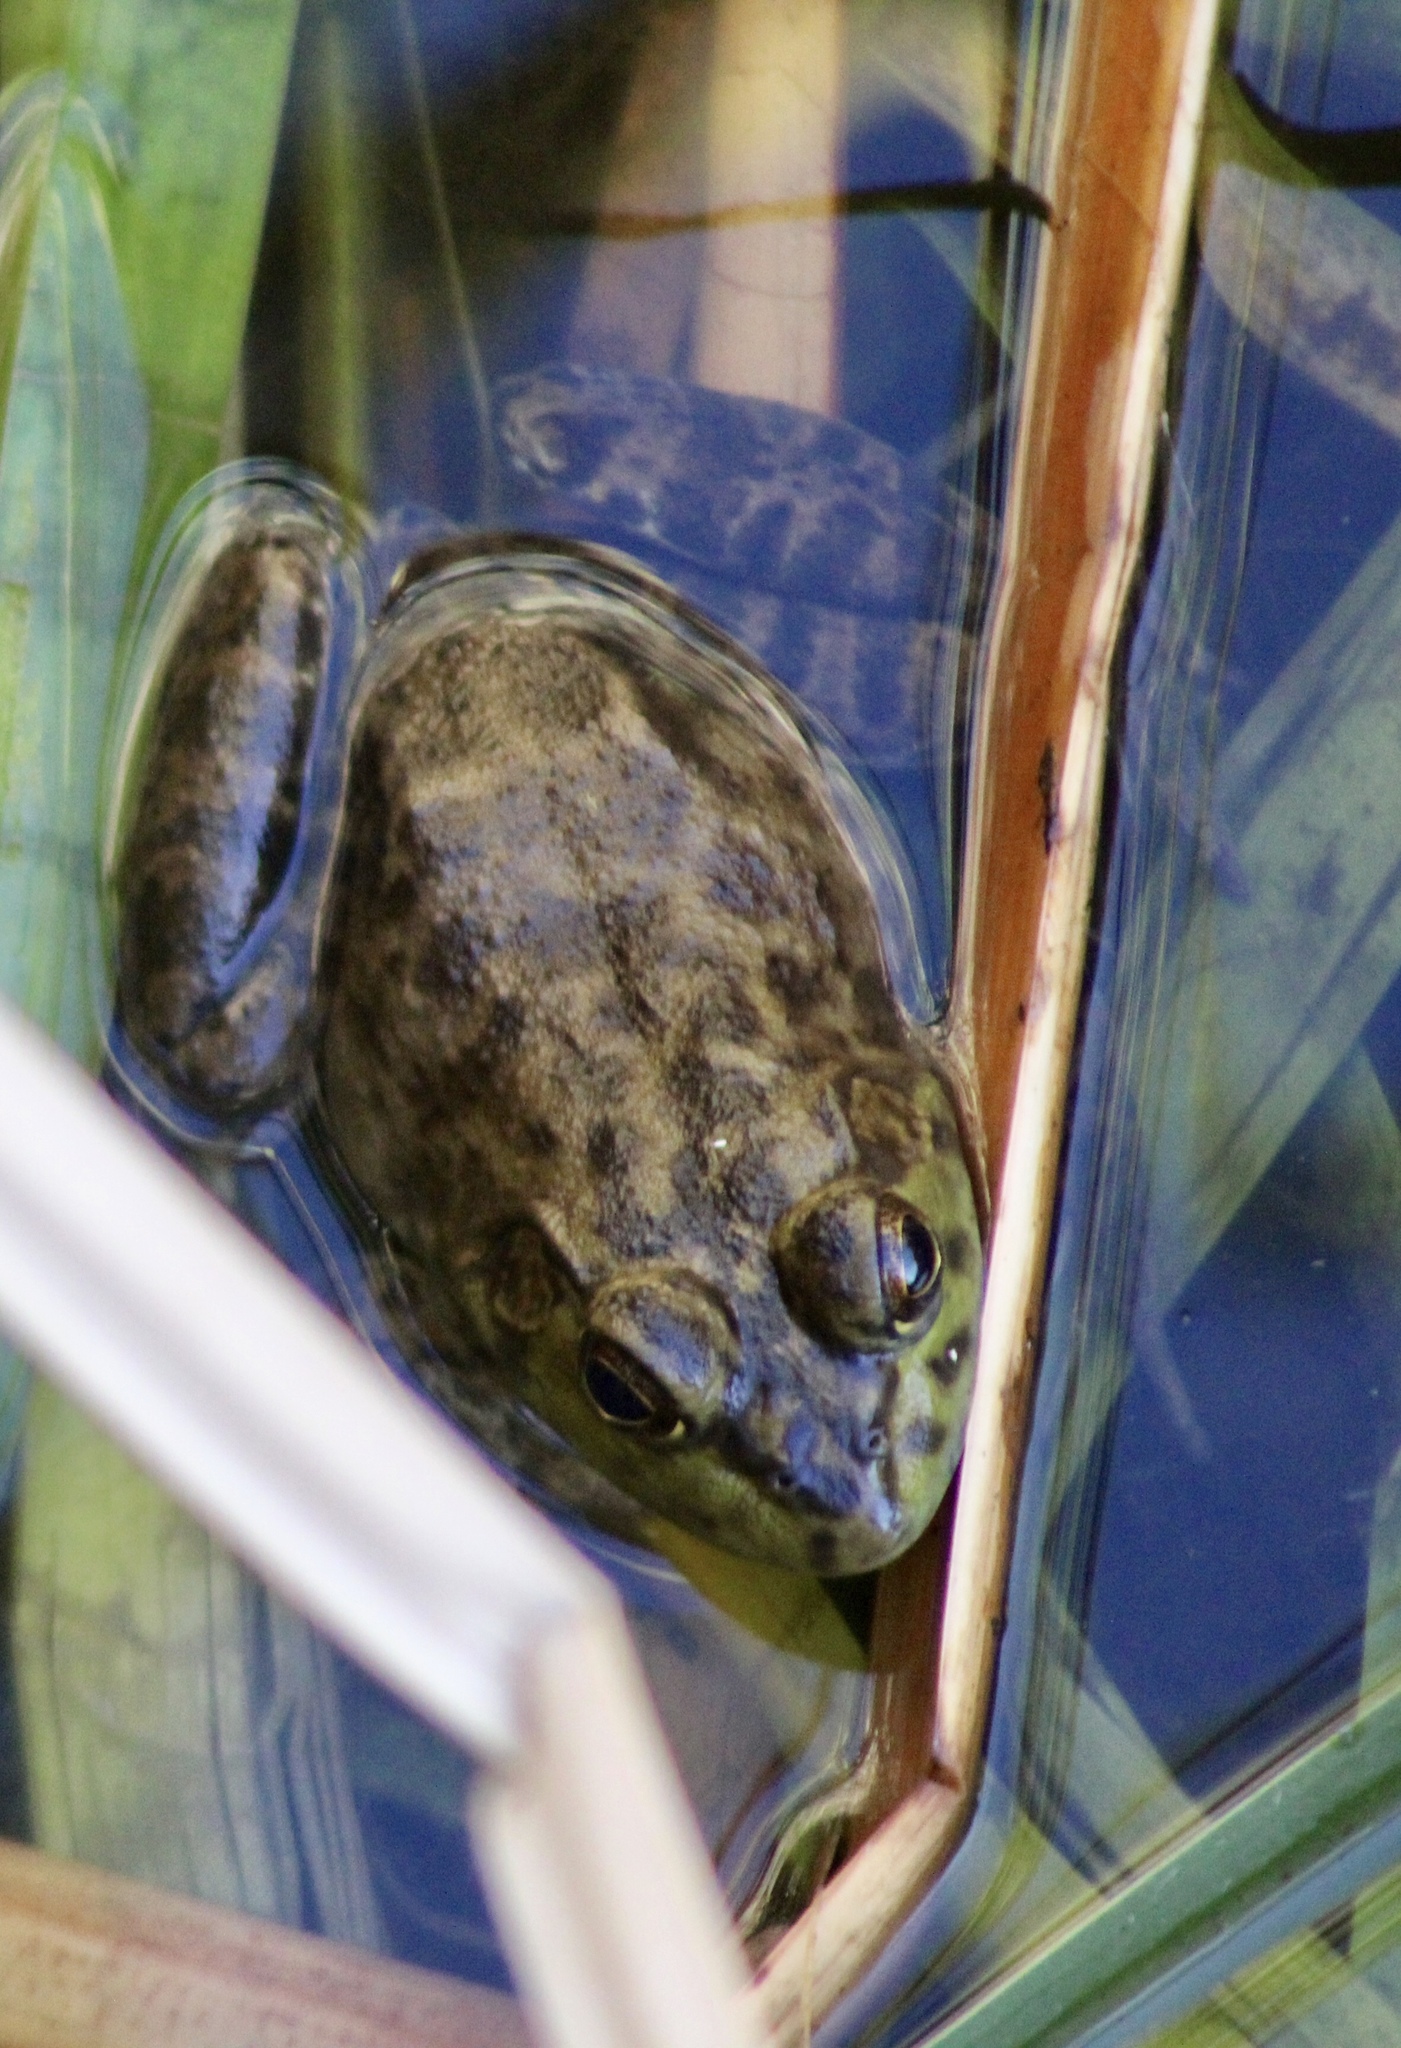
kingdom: Animalia
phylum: Chordata
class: Amphibia
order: Anura
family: Ranidae
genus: Lithobates
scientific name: Lithobates catesbeianus
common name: American bullfrog
